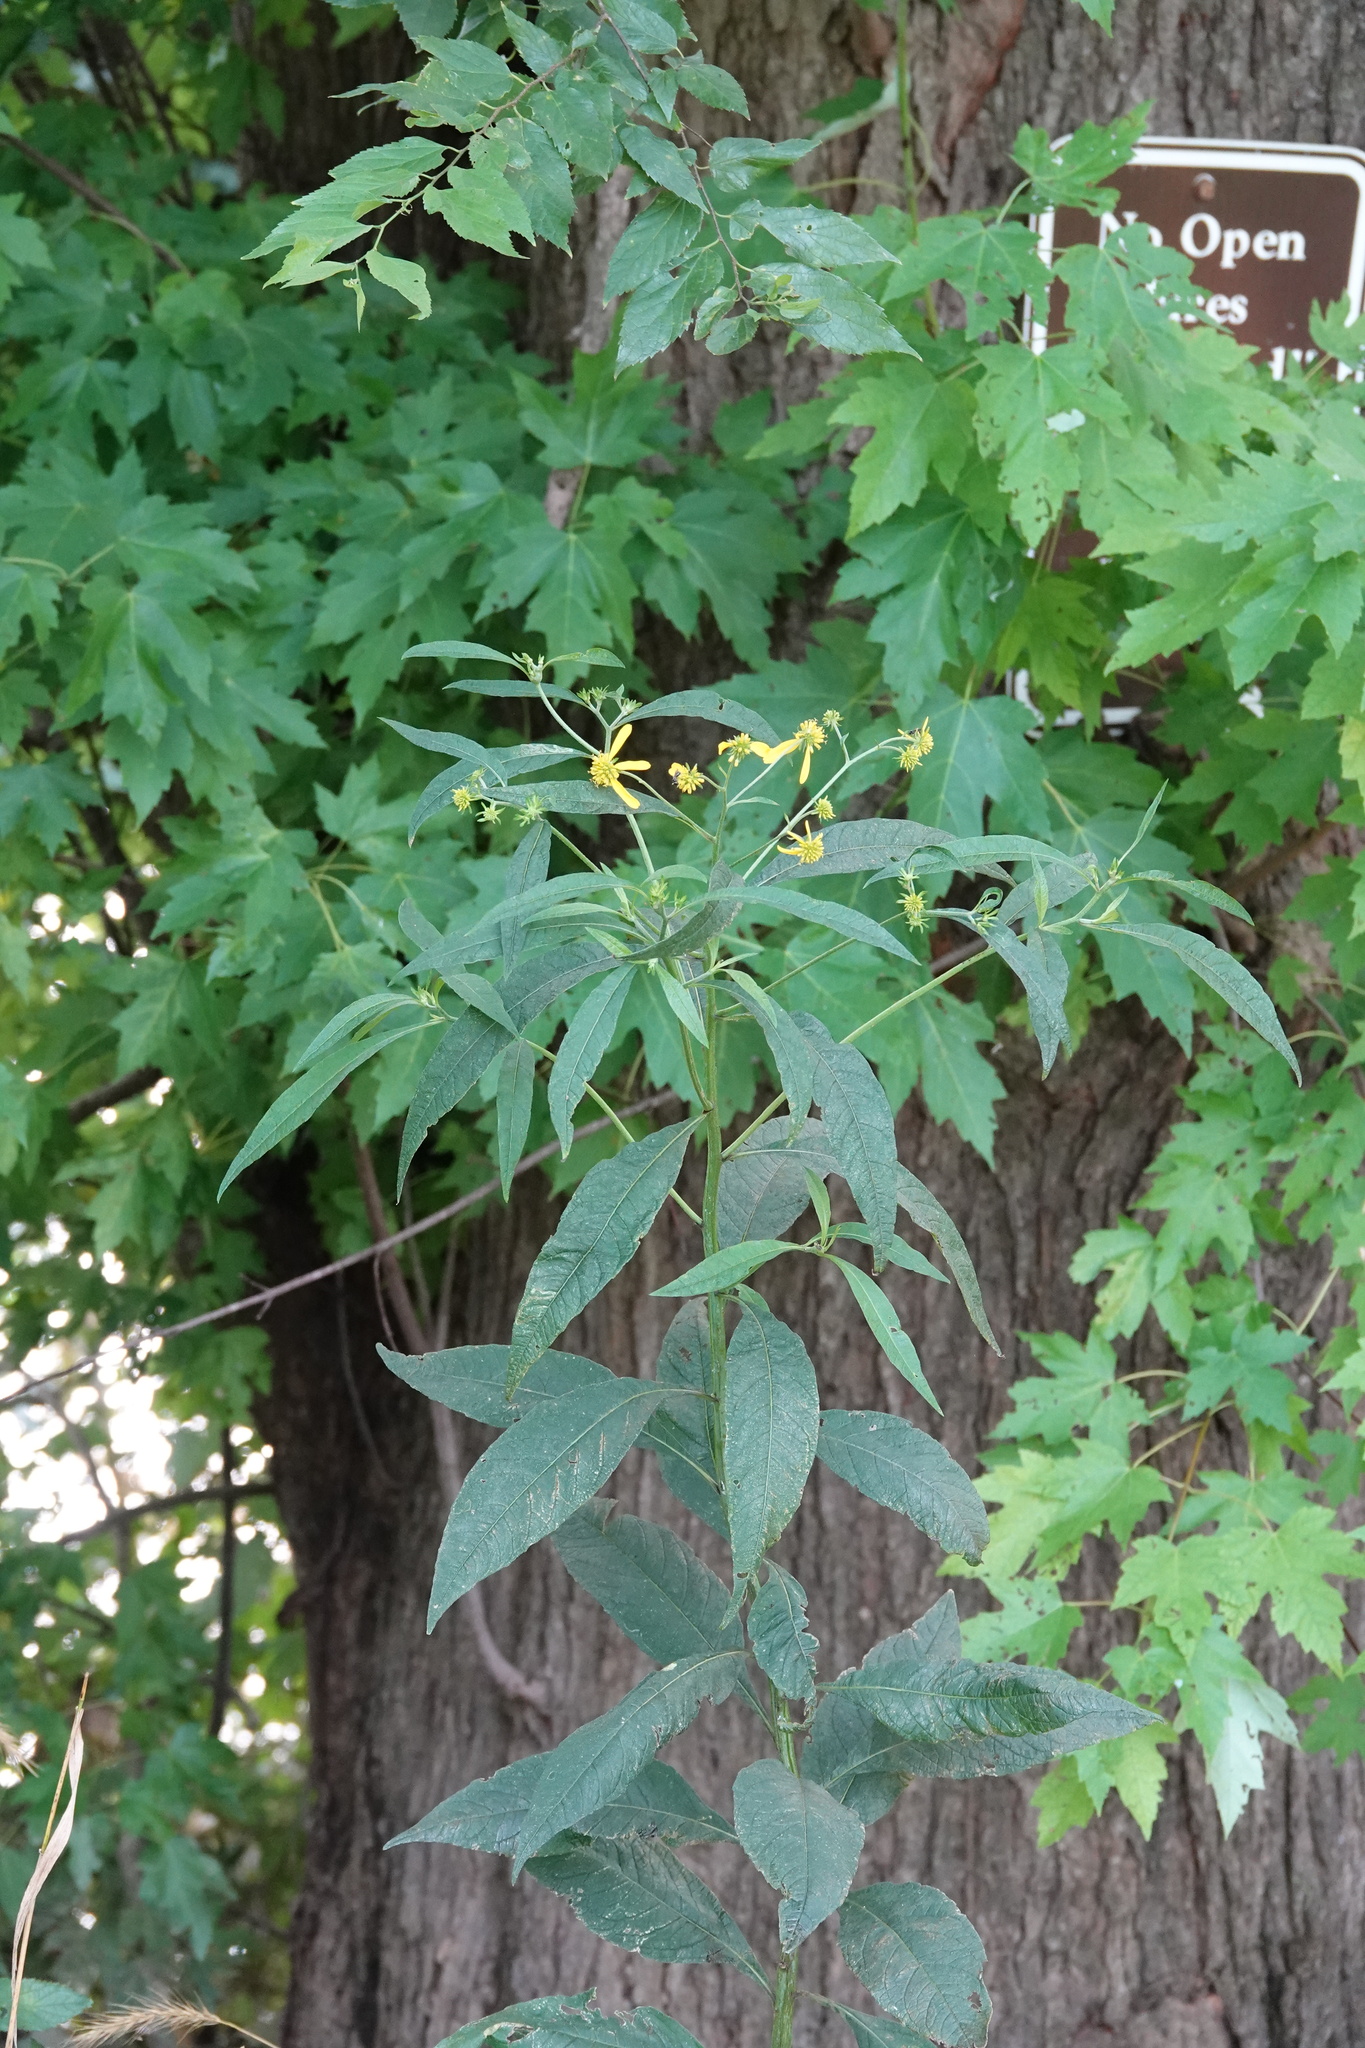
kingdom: Plantae
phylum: Tracheophyta
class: Magnoliopsida
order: Asterales
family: Asteraceae
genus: Verbesina
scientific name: Verbesina alternifolia
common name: Wingstem
